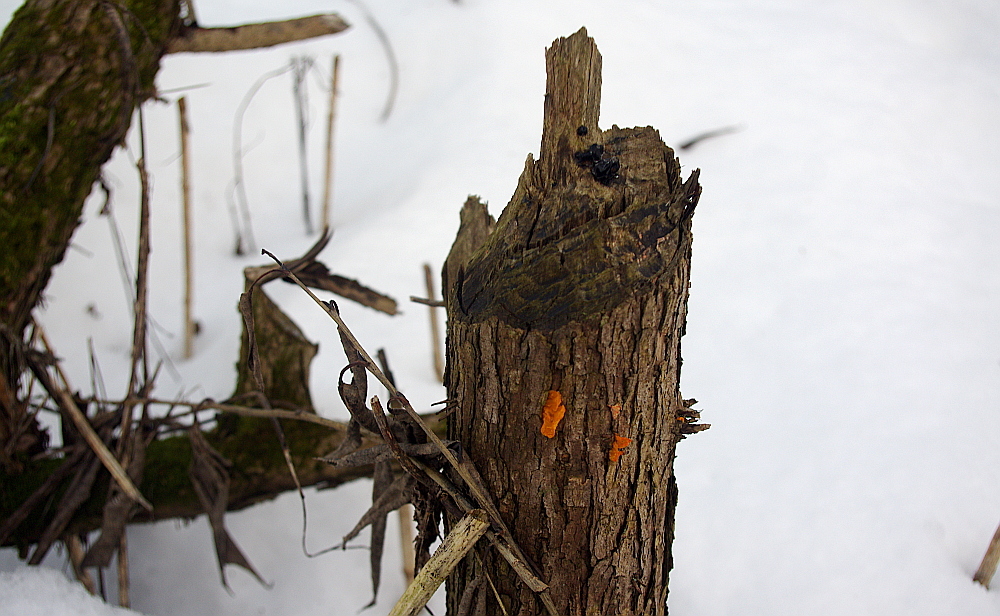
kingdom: Fungi
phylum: Basidiomycota
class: Tremellomycetes
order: Tremellales
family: Tremellaceae
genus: Tremella
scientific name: Tremella mesenterica
